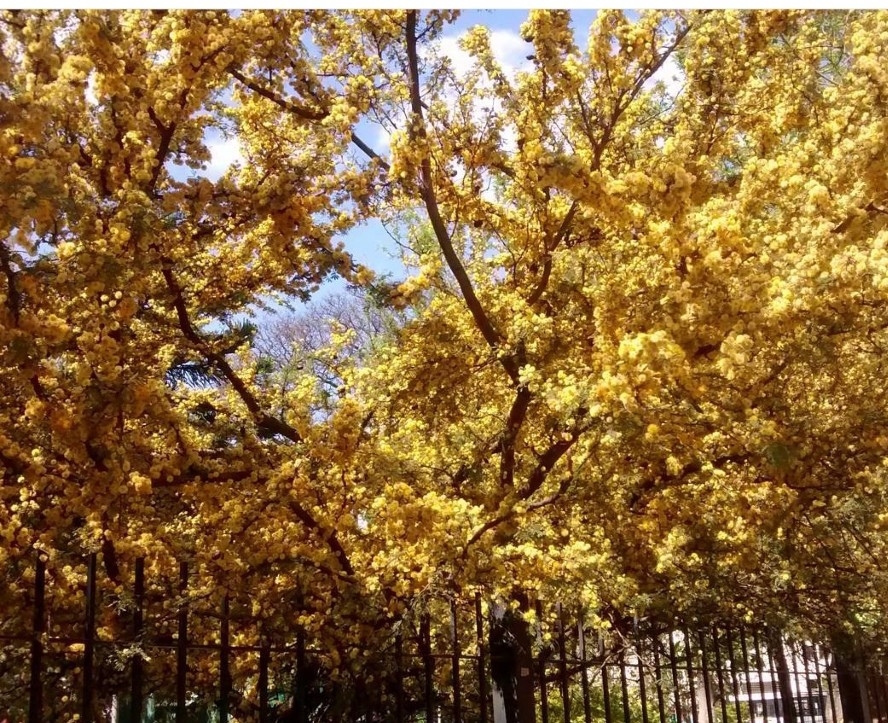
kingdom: Plantae
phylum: Tracheophyta
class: Magnoliopsida
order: Fabales
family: Fabaceae
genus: Vachellia
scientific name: Vachellia caven
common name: Roman cassie
